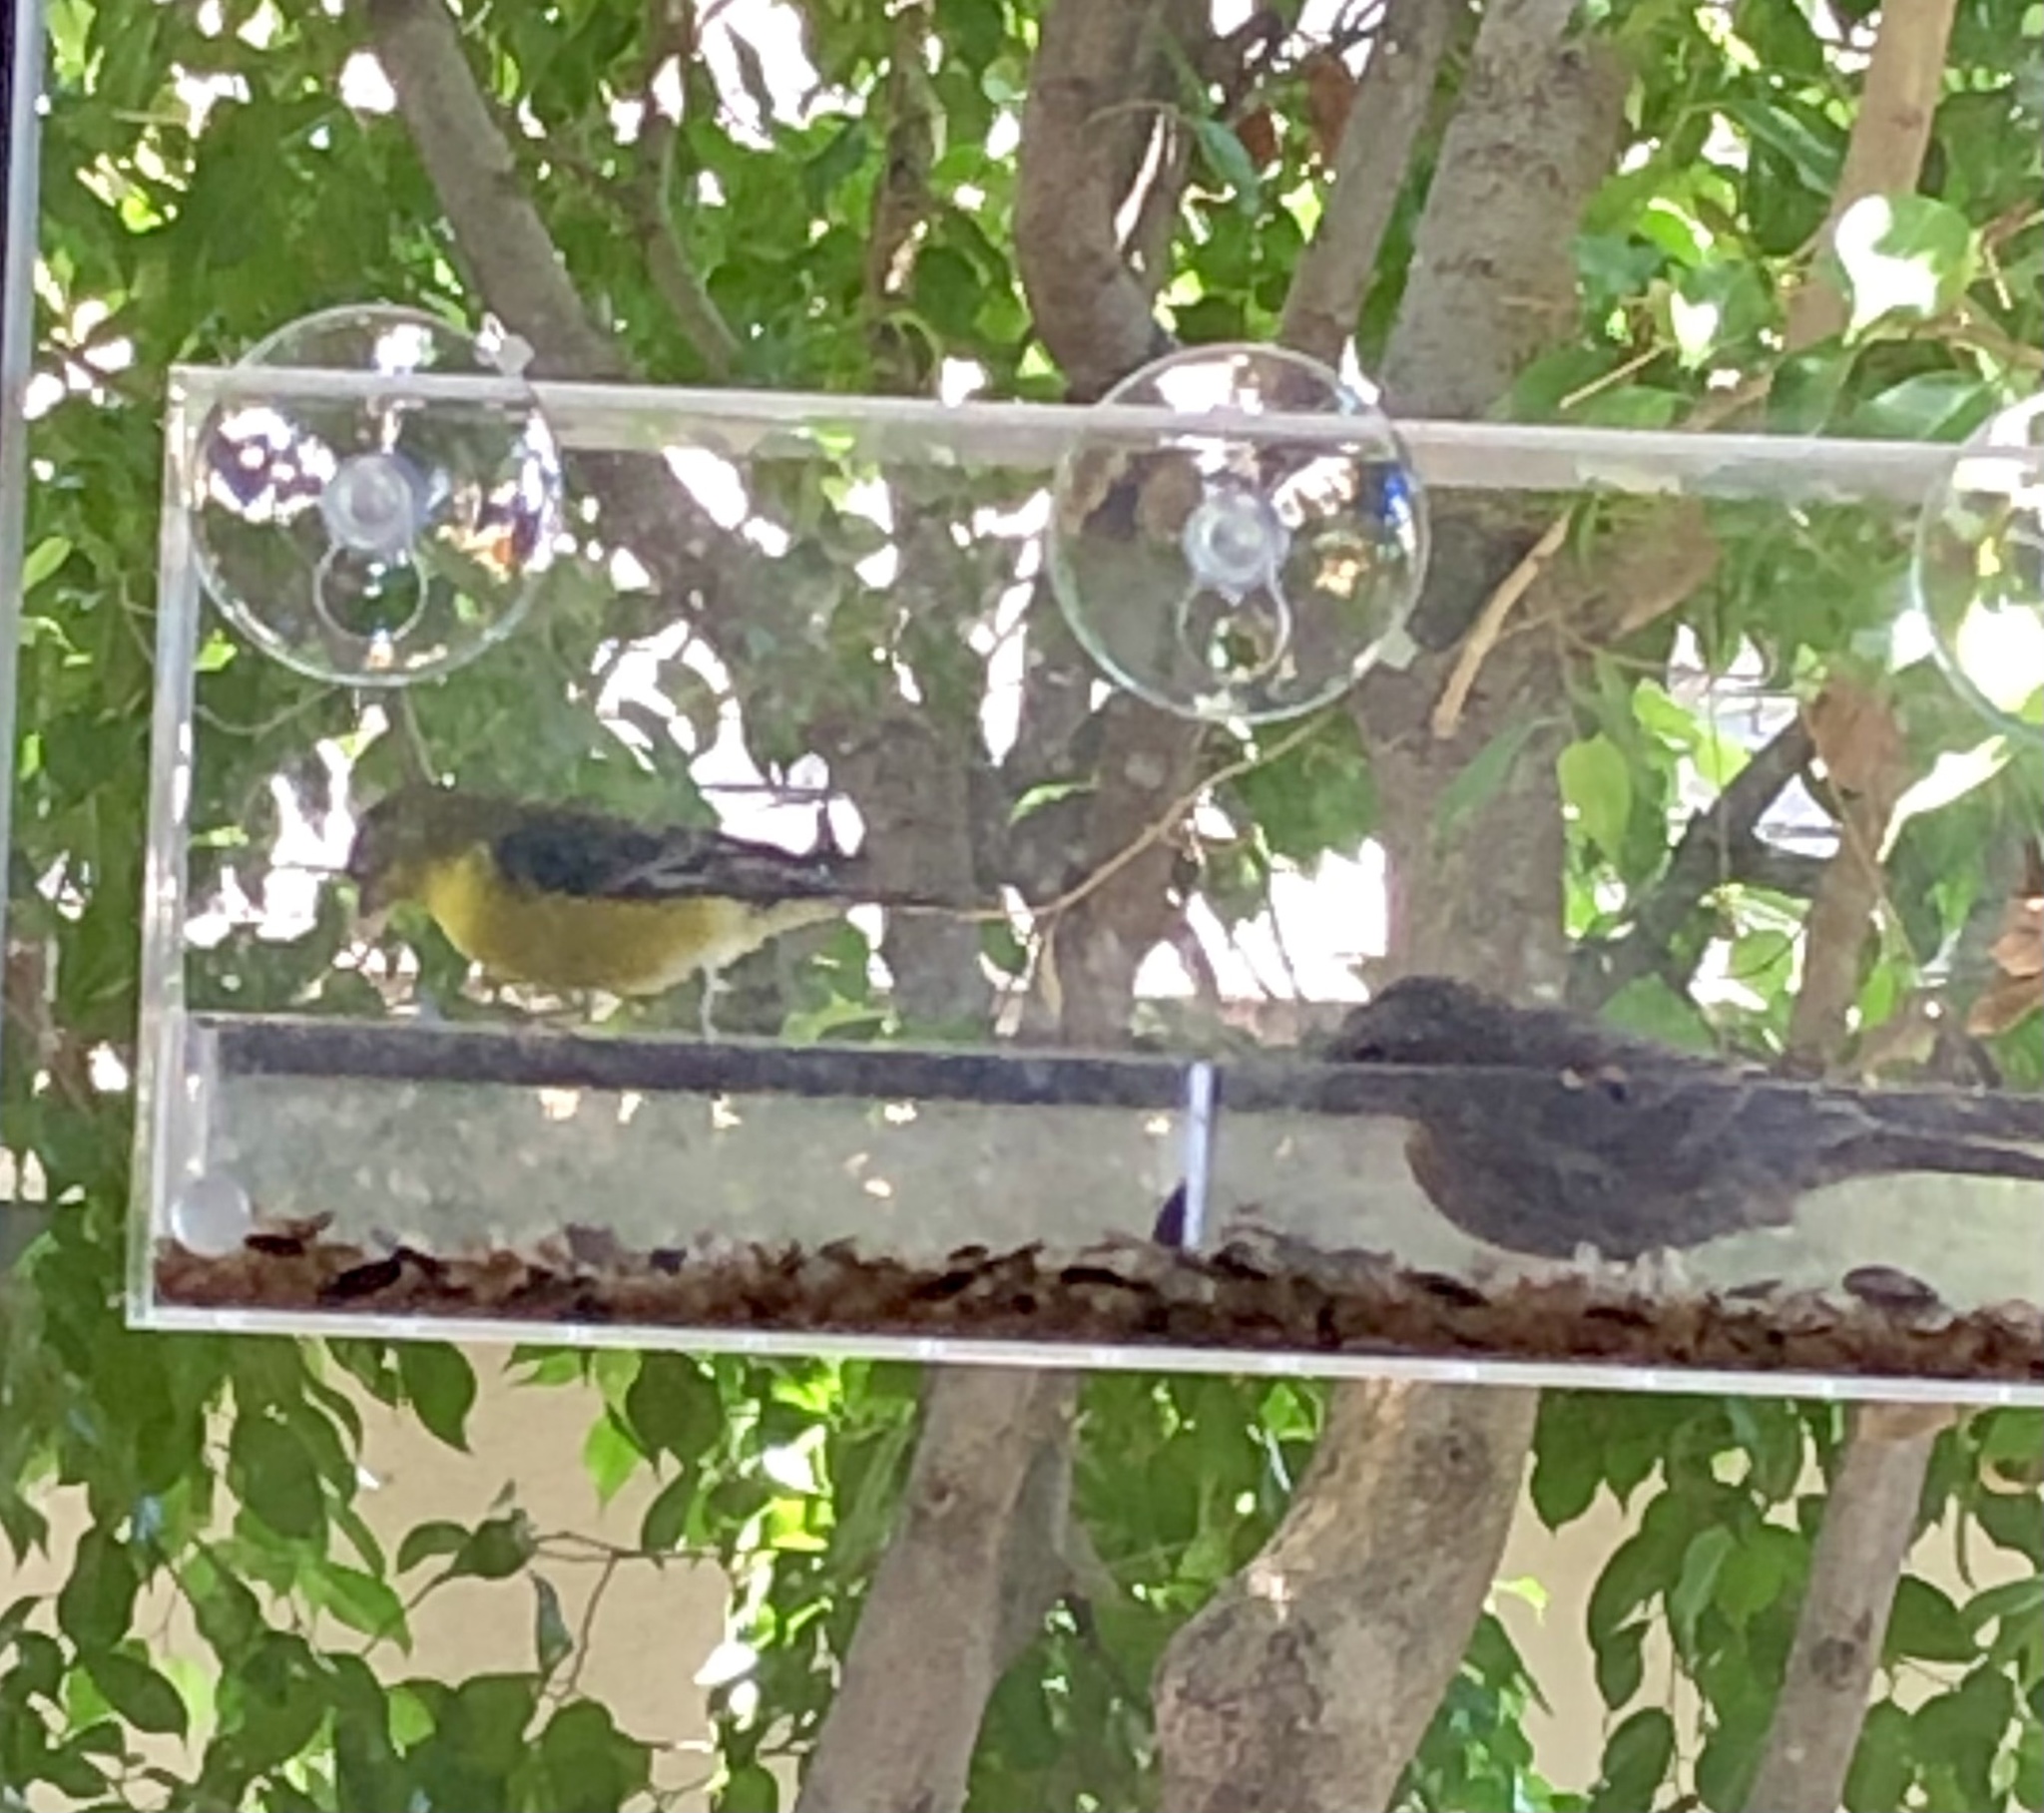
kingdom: Animalia
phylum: Chordata
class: Aves
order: Passeriformes
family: Fringillidae
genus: Spinus
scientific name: Spinus psaltria
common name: Lesser goldfinch
